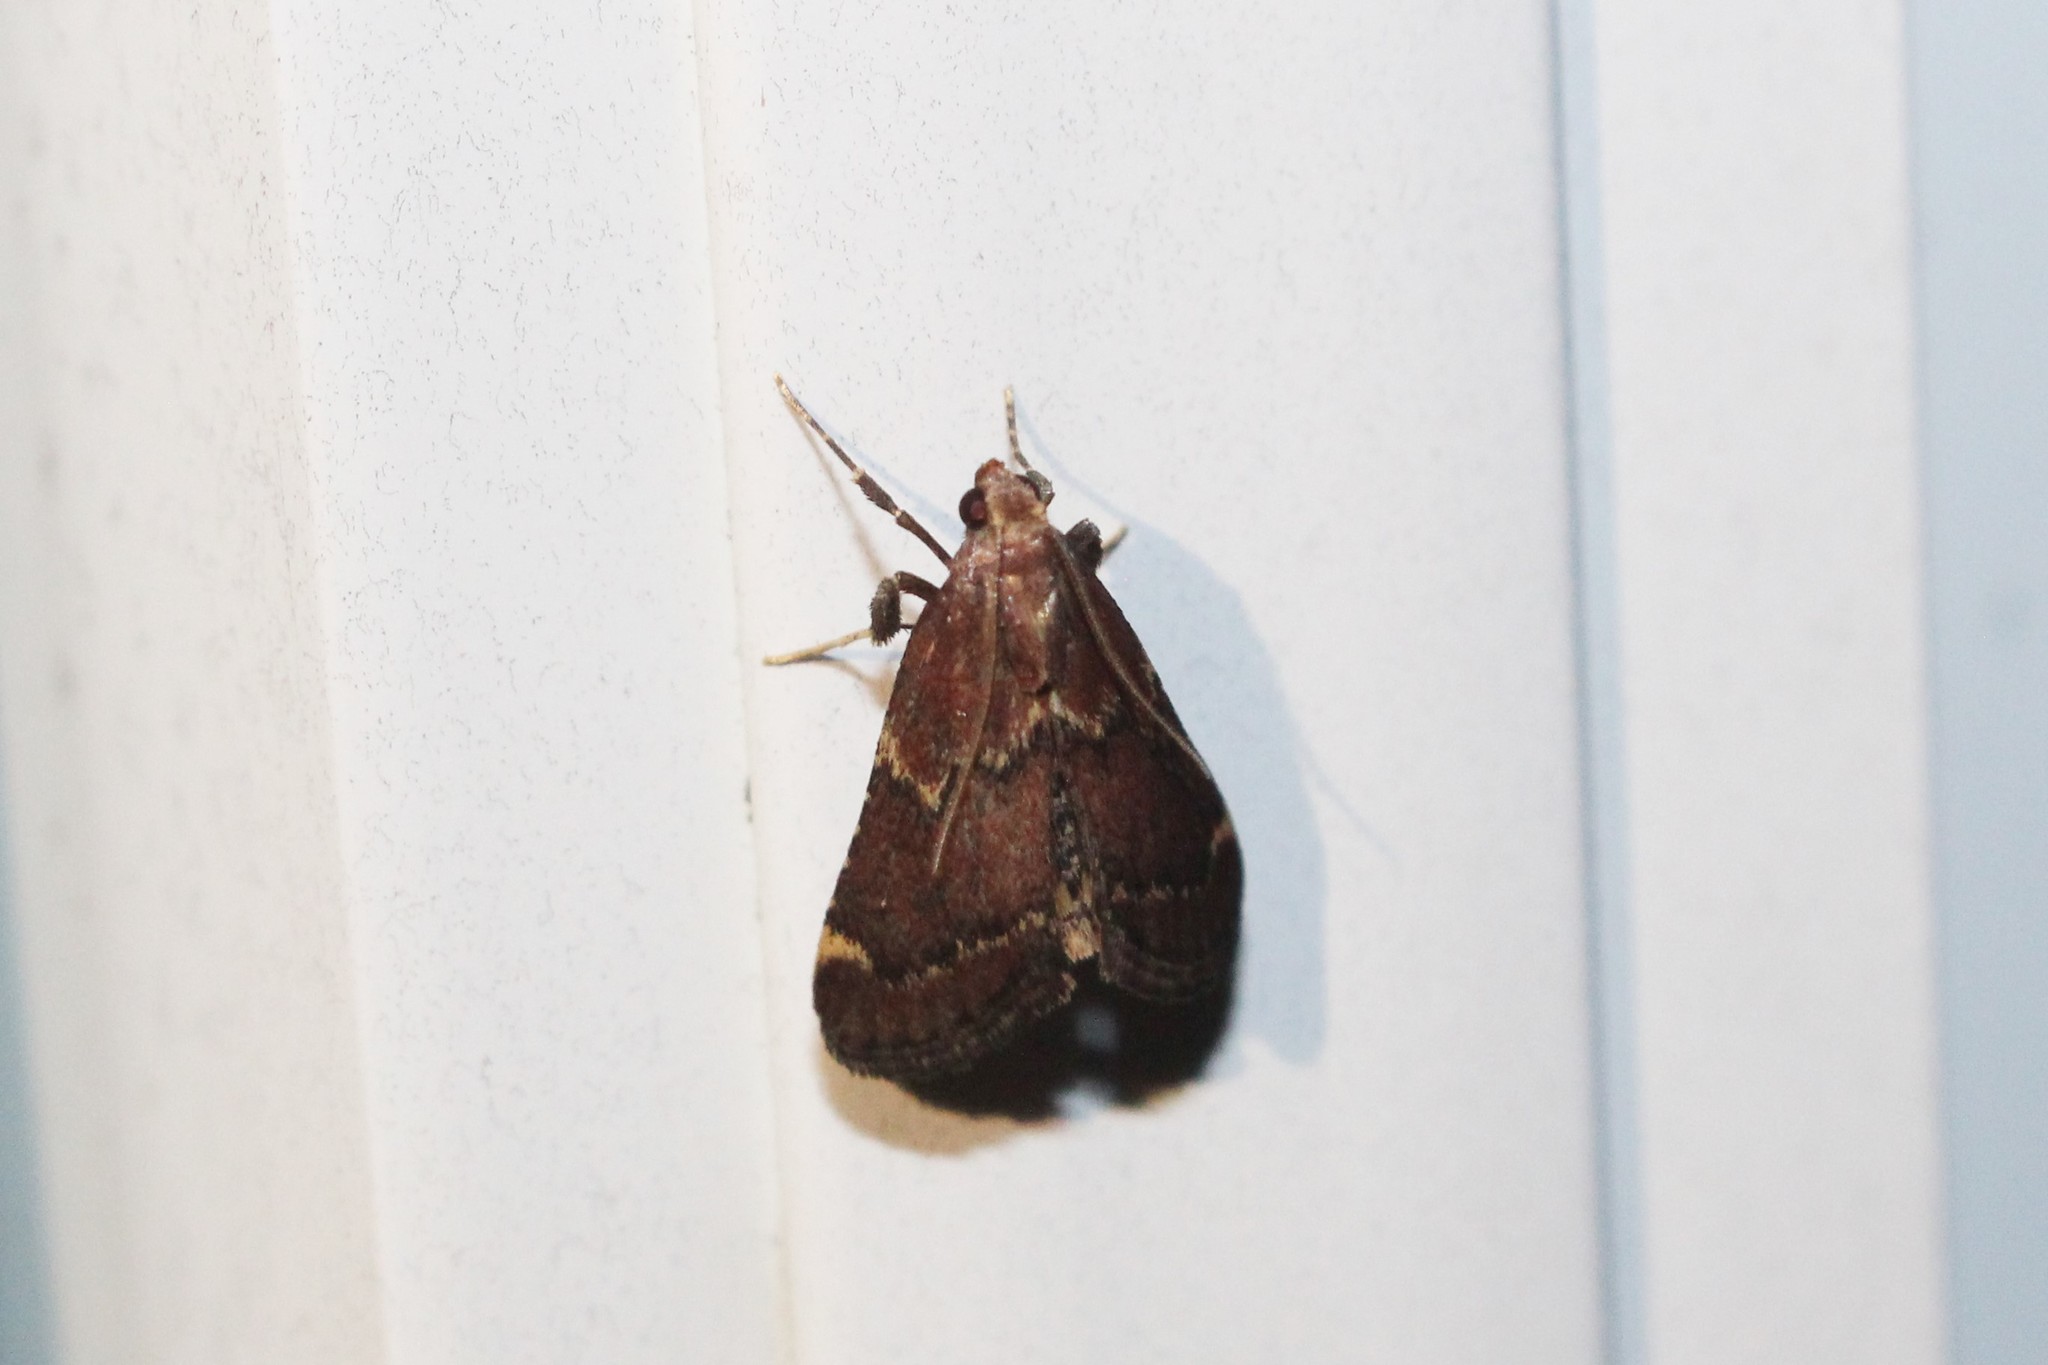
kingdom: Animalia
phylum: Arthropoda
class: Insecta
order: Lepidoptera
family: Pyralidae
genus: Hypsopygia
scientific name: Hypsopygia intermedialis
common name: Red-shawled moth
